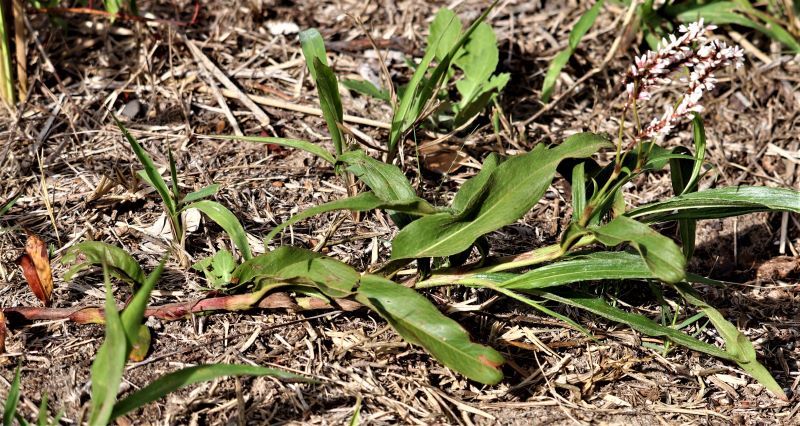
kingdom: Plantae
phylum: Tracheophyta
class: Magnoliopsida
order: Caryophyllales
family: Polygonaceae
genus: Persicaria
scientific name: Persicaria madagascariensis
